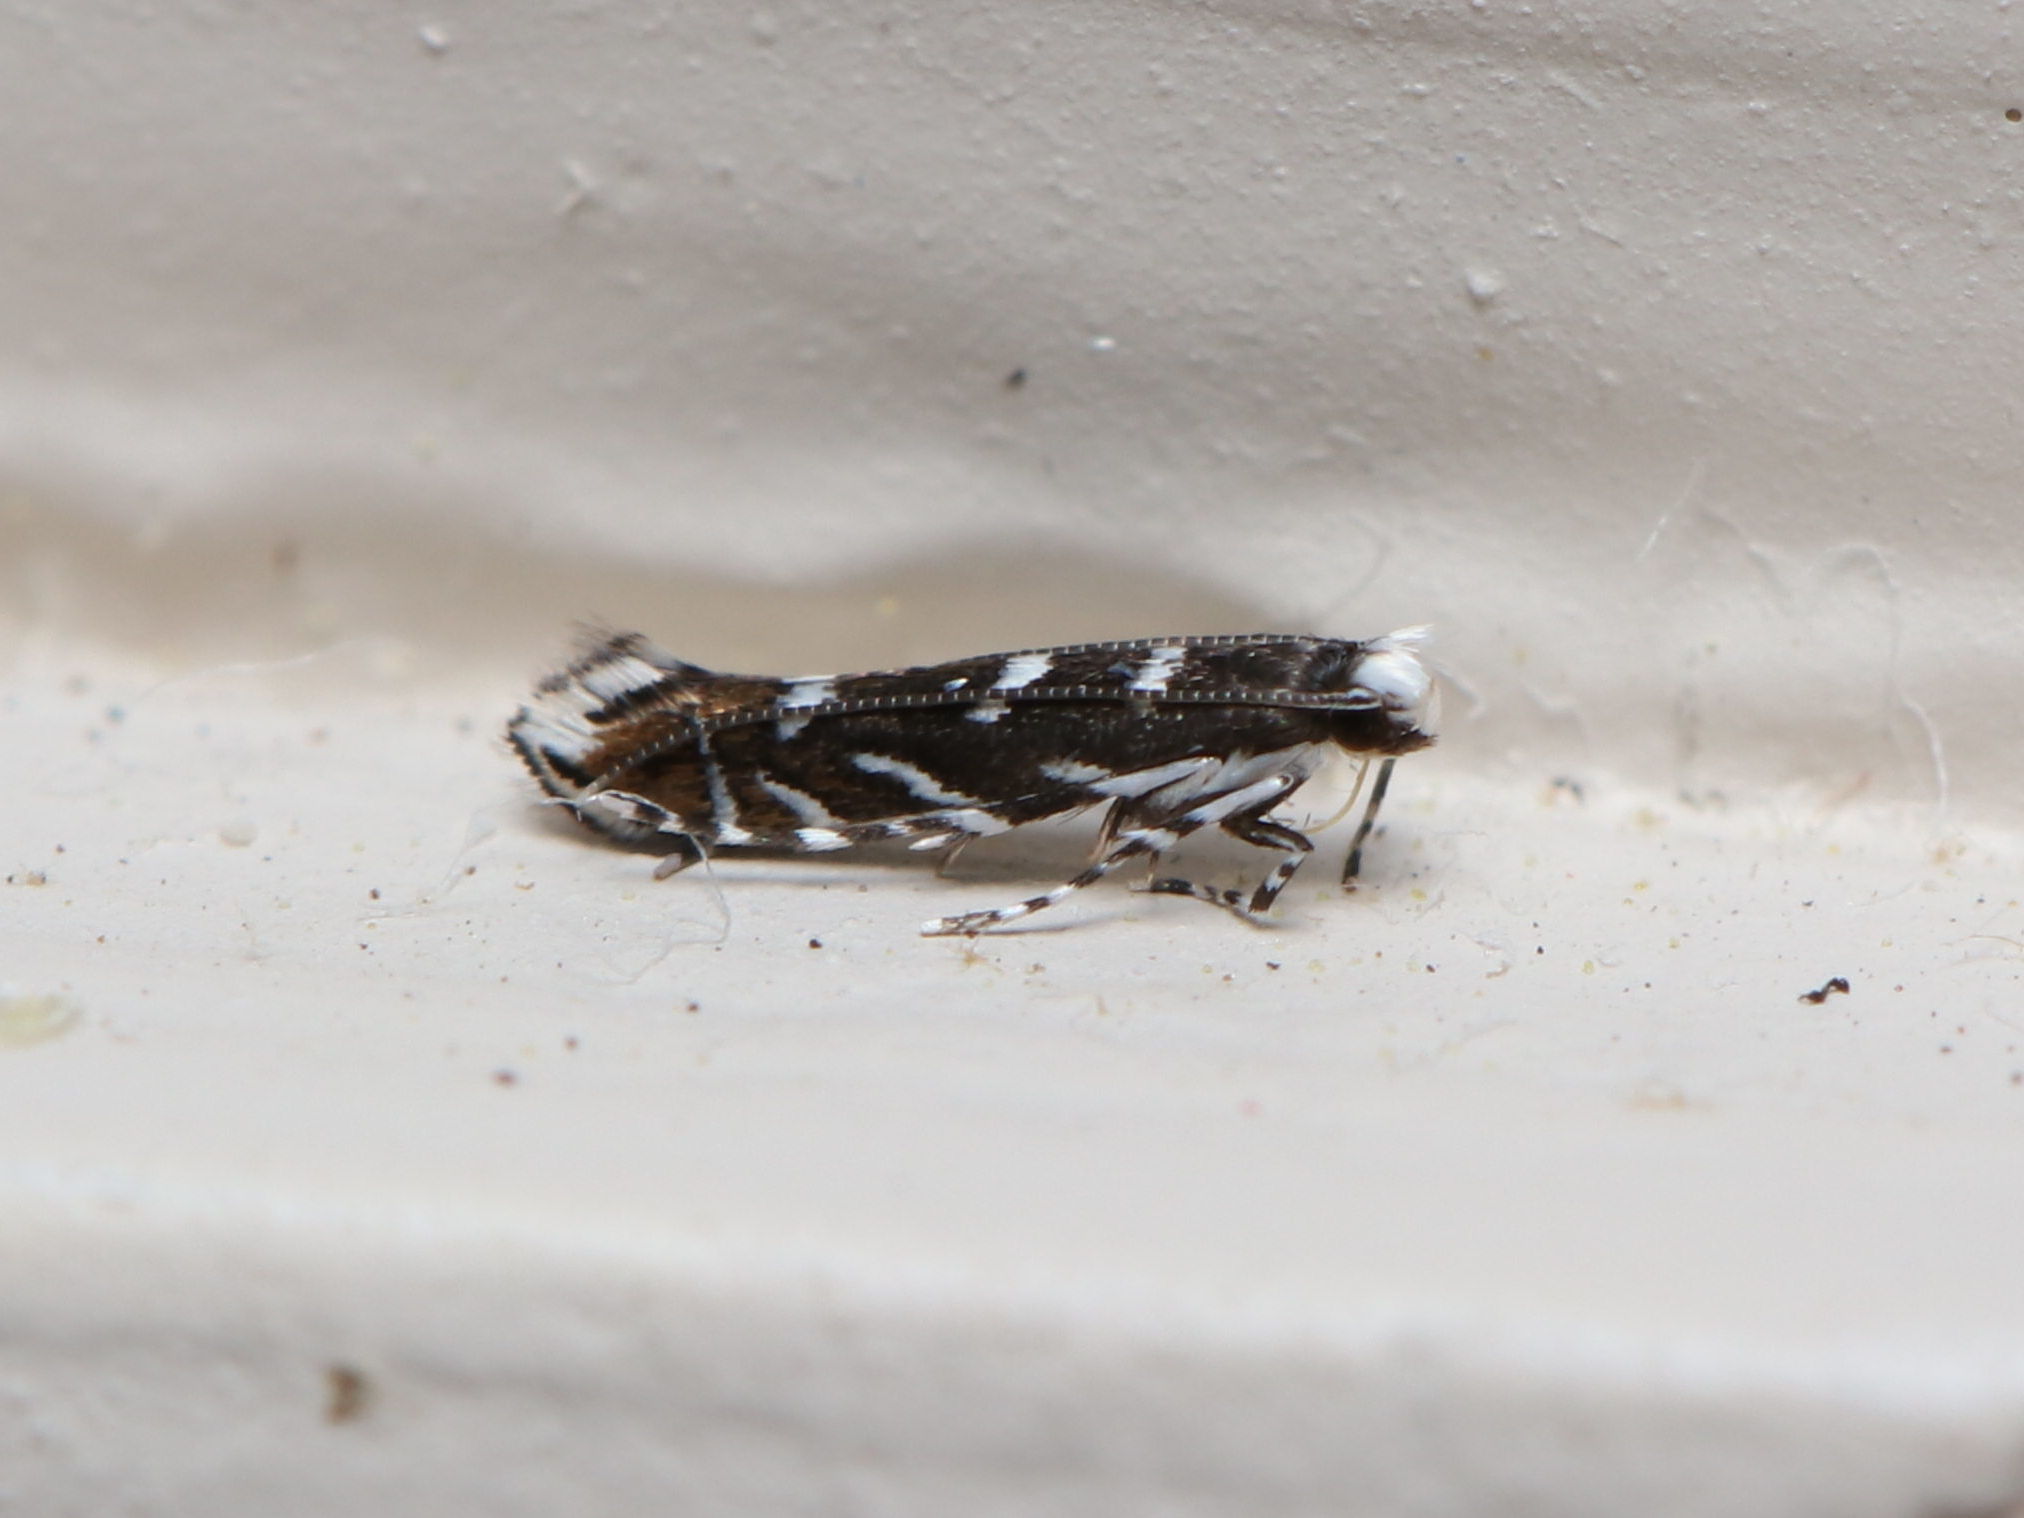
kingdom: Animalia
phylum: Arthropoda
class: Insecta
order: Lepidoptera
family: Gracillariidae
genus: Parectopa
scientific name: Parectopa robiniella
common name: Locust digitate leafminer
